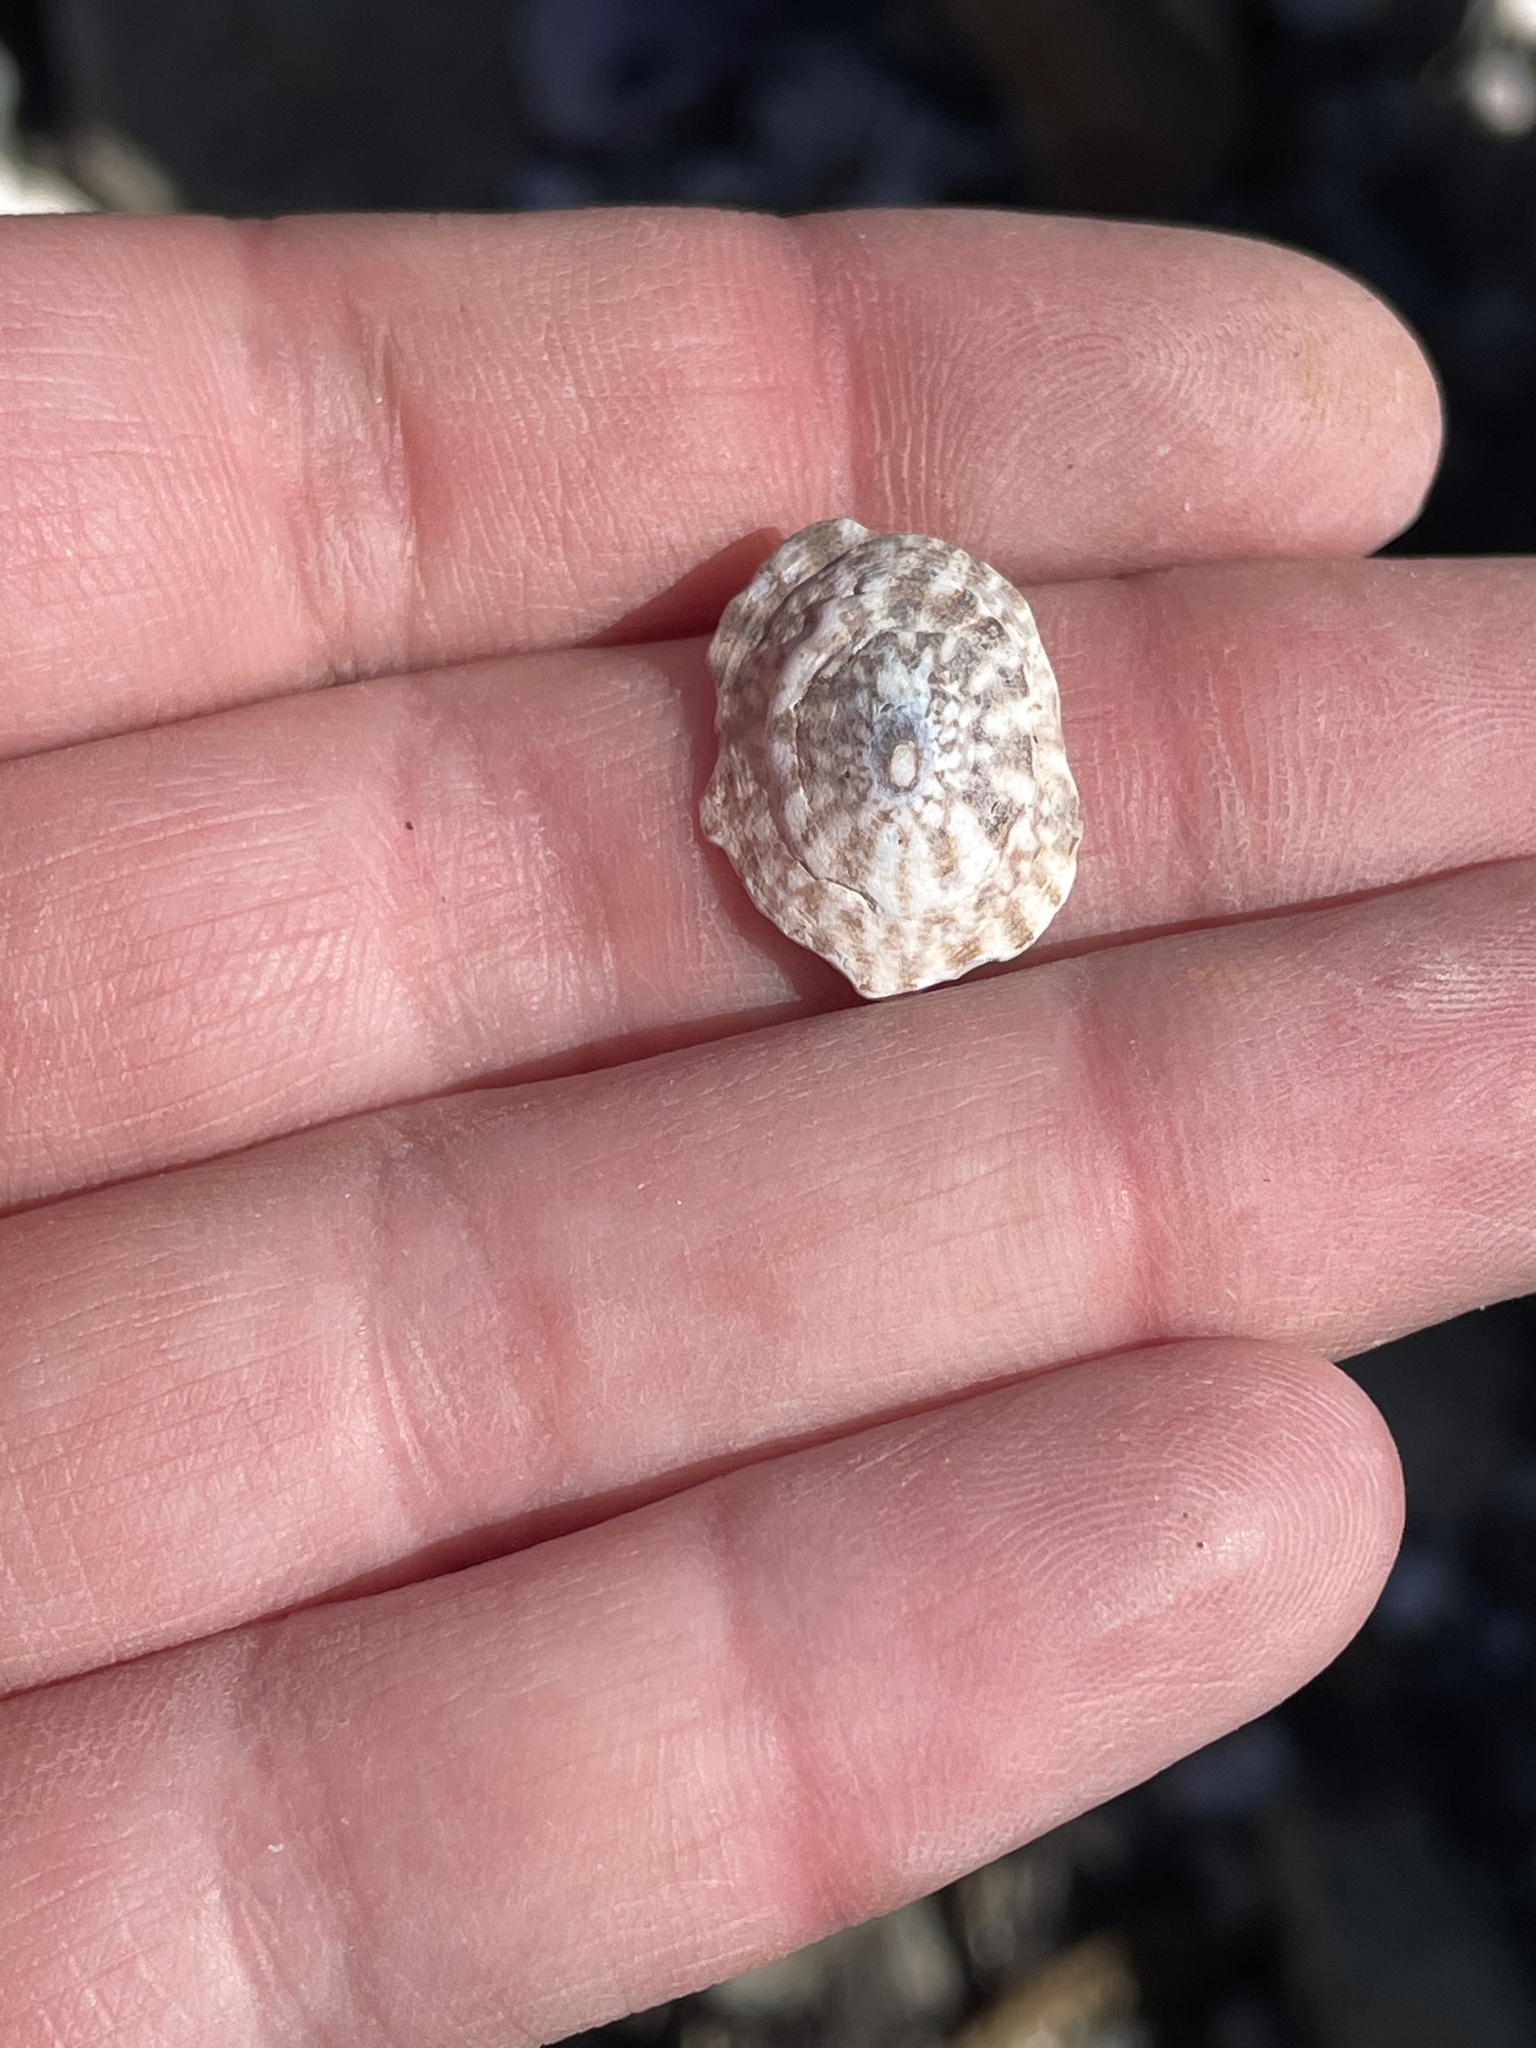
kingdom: Animalia
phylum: Mollusca
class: Gastropoda
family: Lottiidae
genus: Testudinalia
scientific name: Testudinalia testudinalis
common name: Common tortoiseshell limpet
